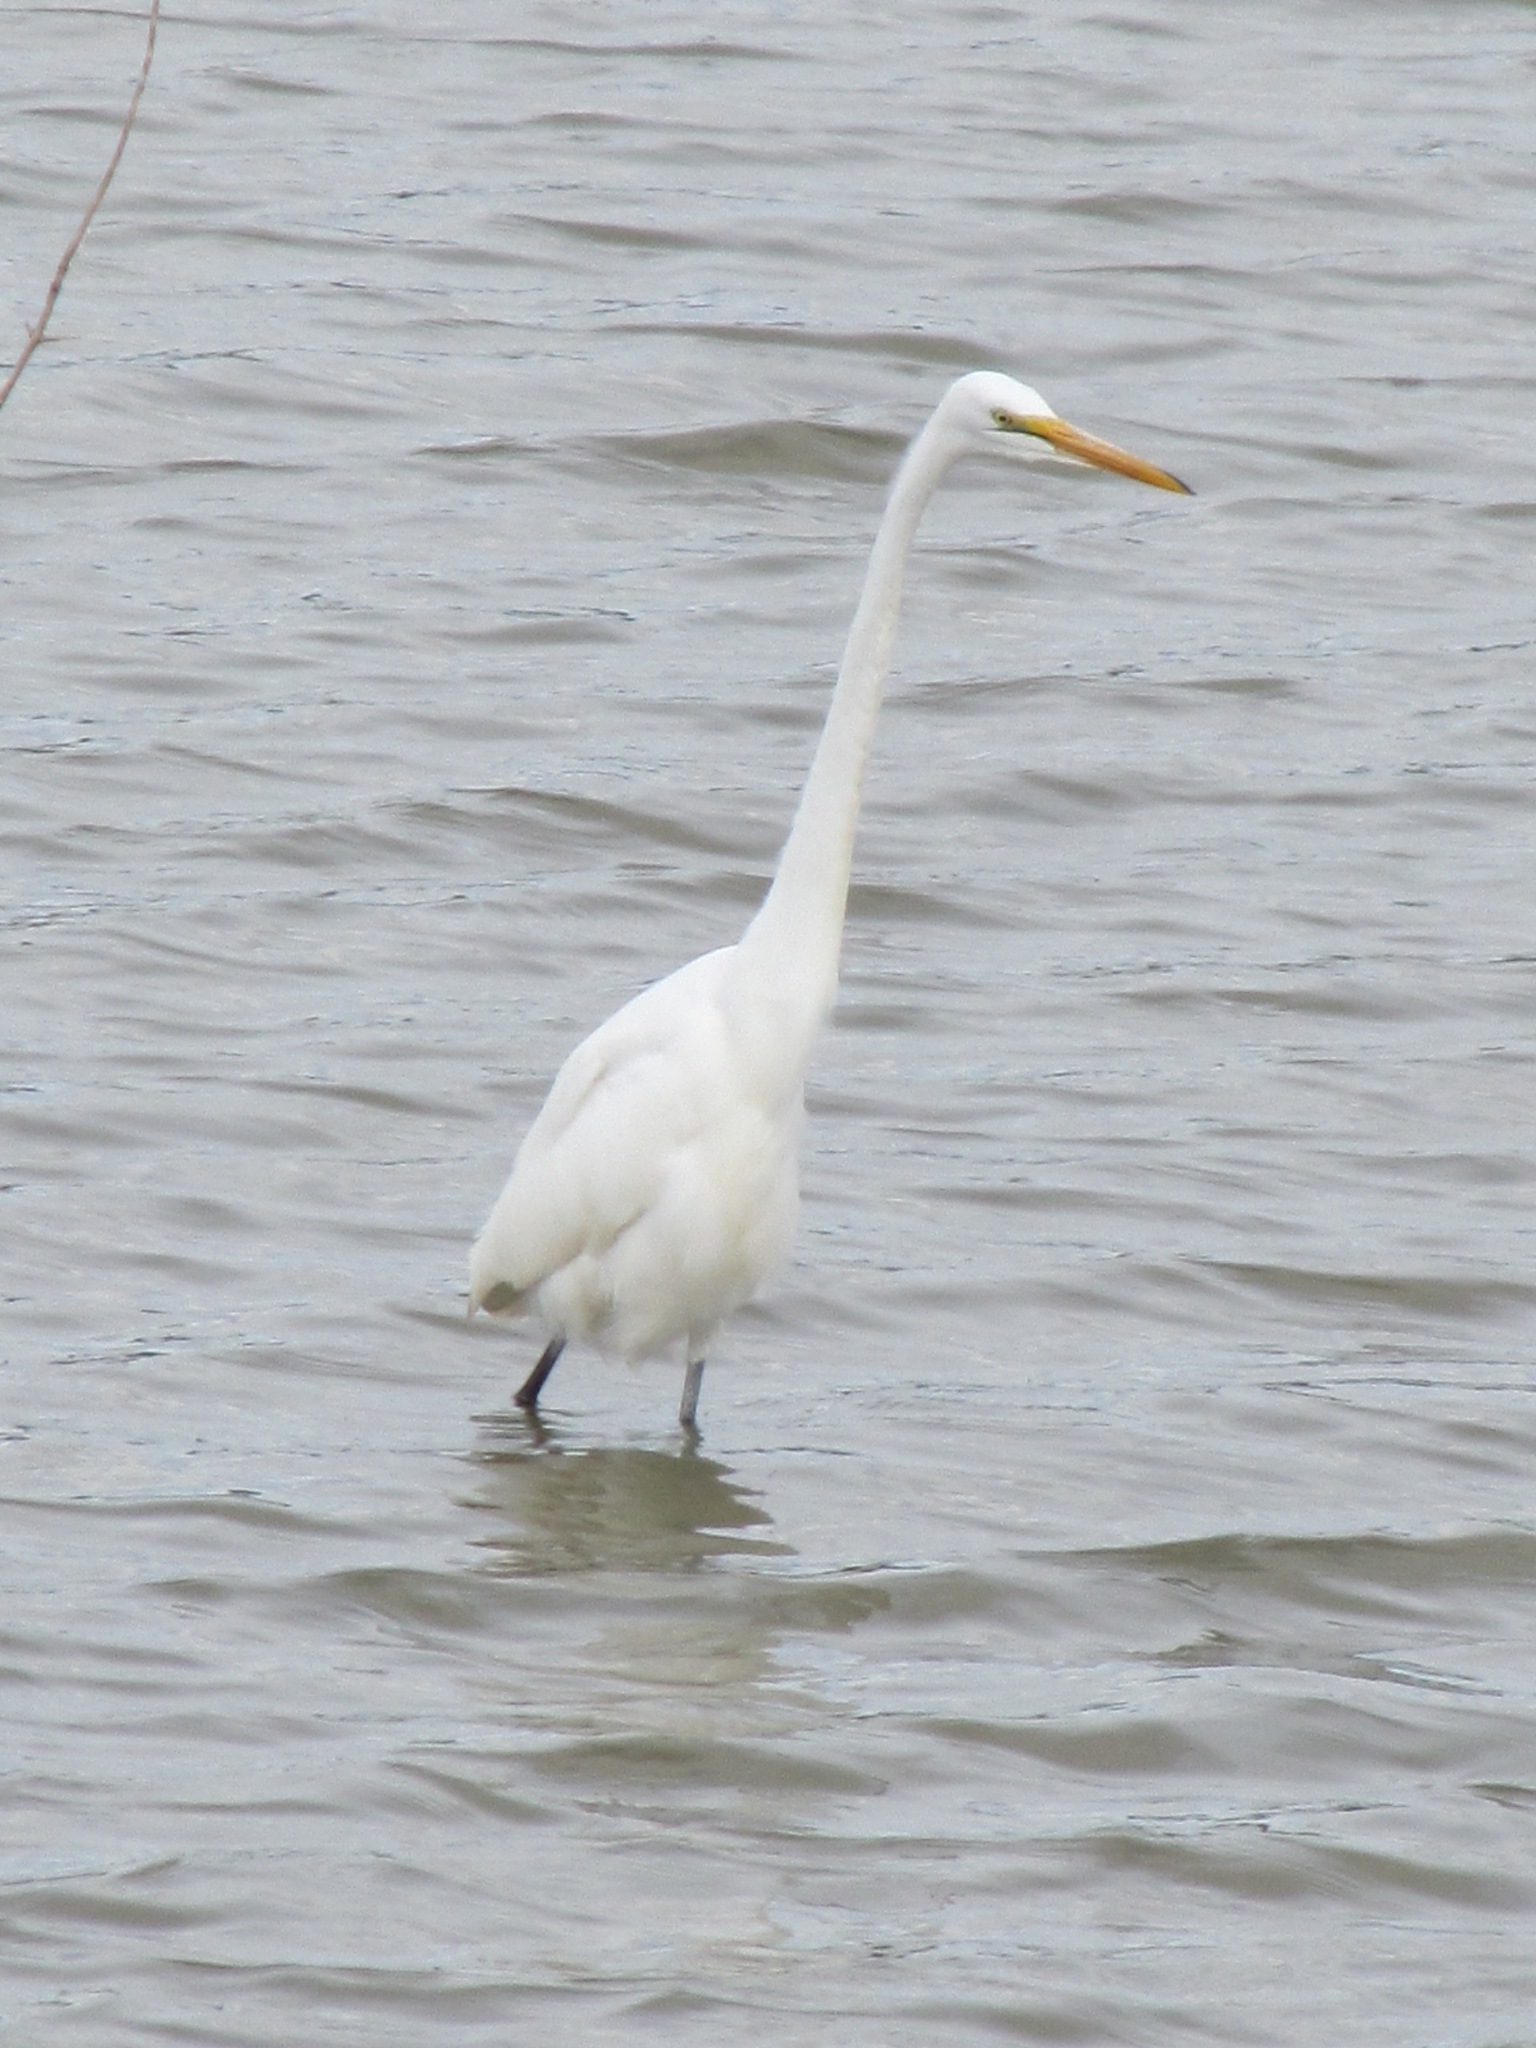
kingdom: Animalia
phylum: Chordata
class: Aves
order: Pelecaniformes
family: Ardeidae
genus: Ardea
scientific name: Ardea alba
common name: Great egret
